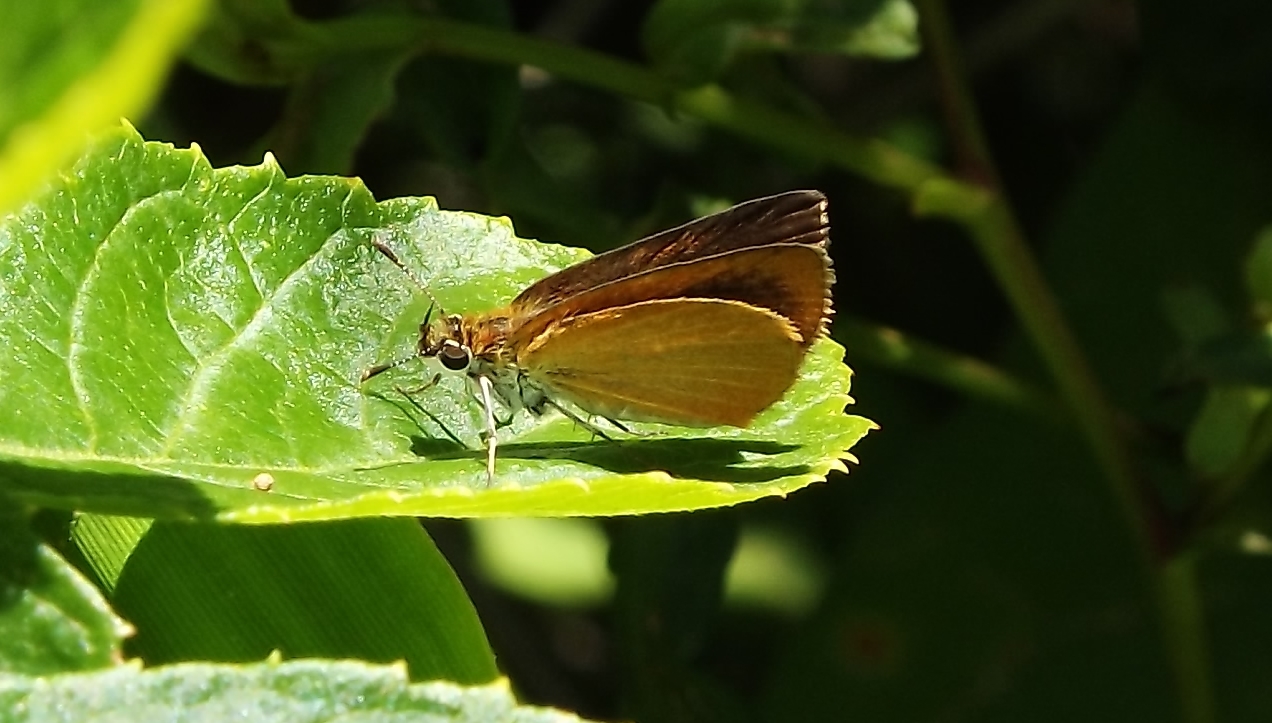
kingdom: Animalia
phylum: Arthropoda
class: Insecta
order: Lepidoptera
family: Hesperiidae
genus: Ancyloxypha
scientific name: Ancyloxypha numitor
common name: Least skipper
